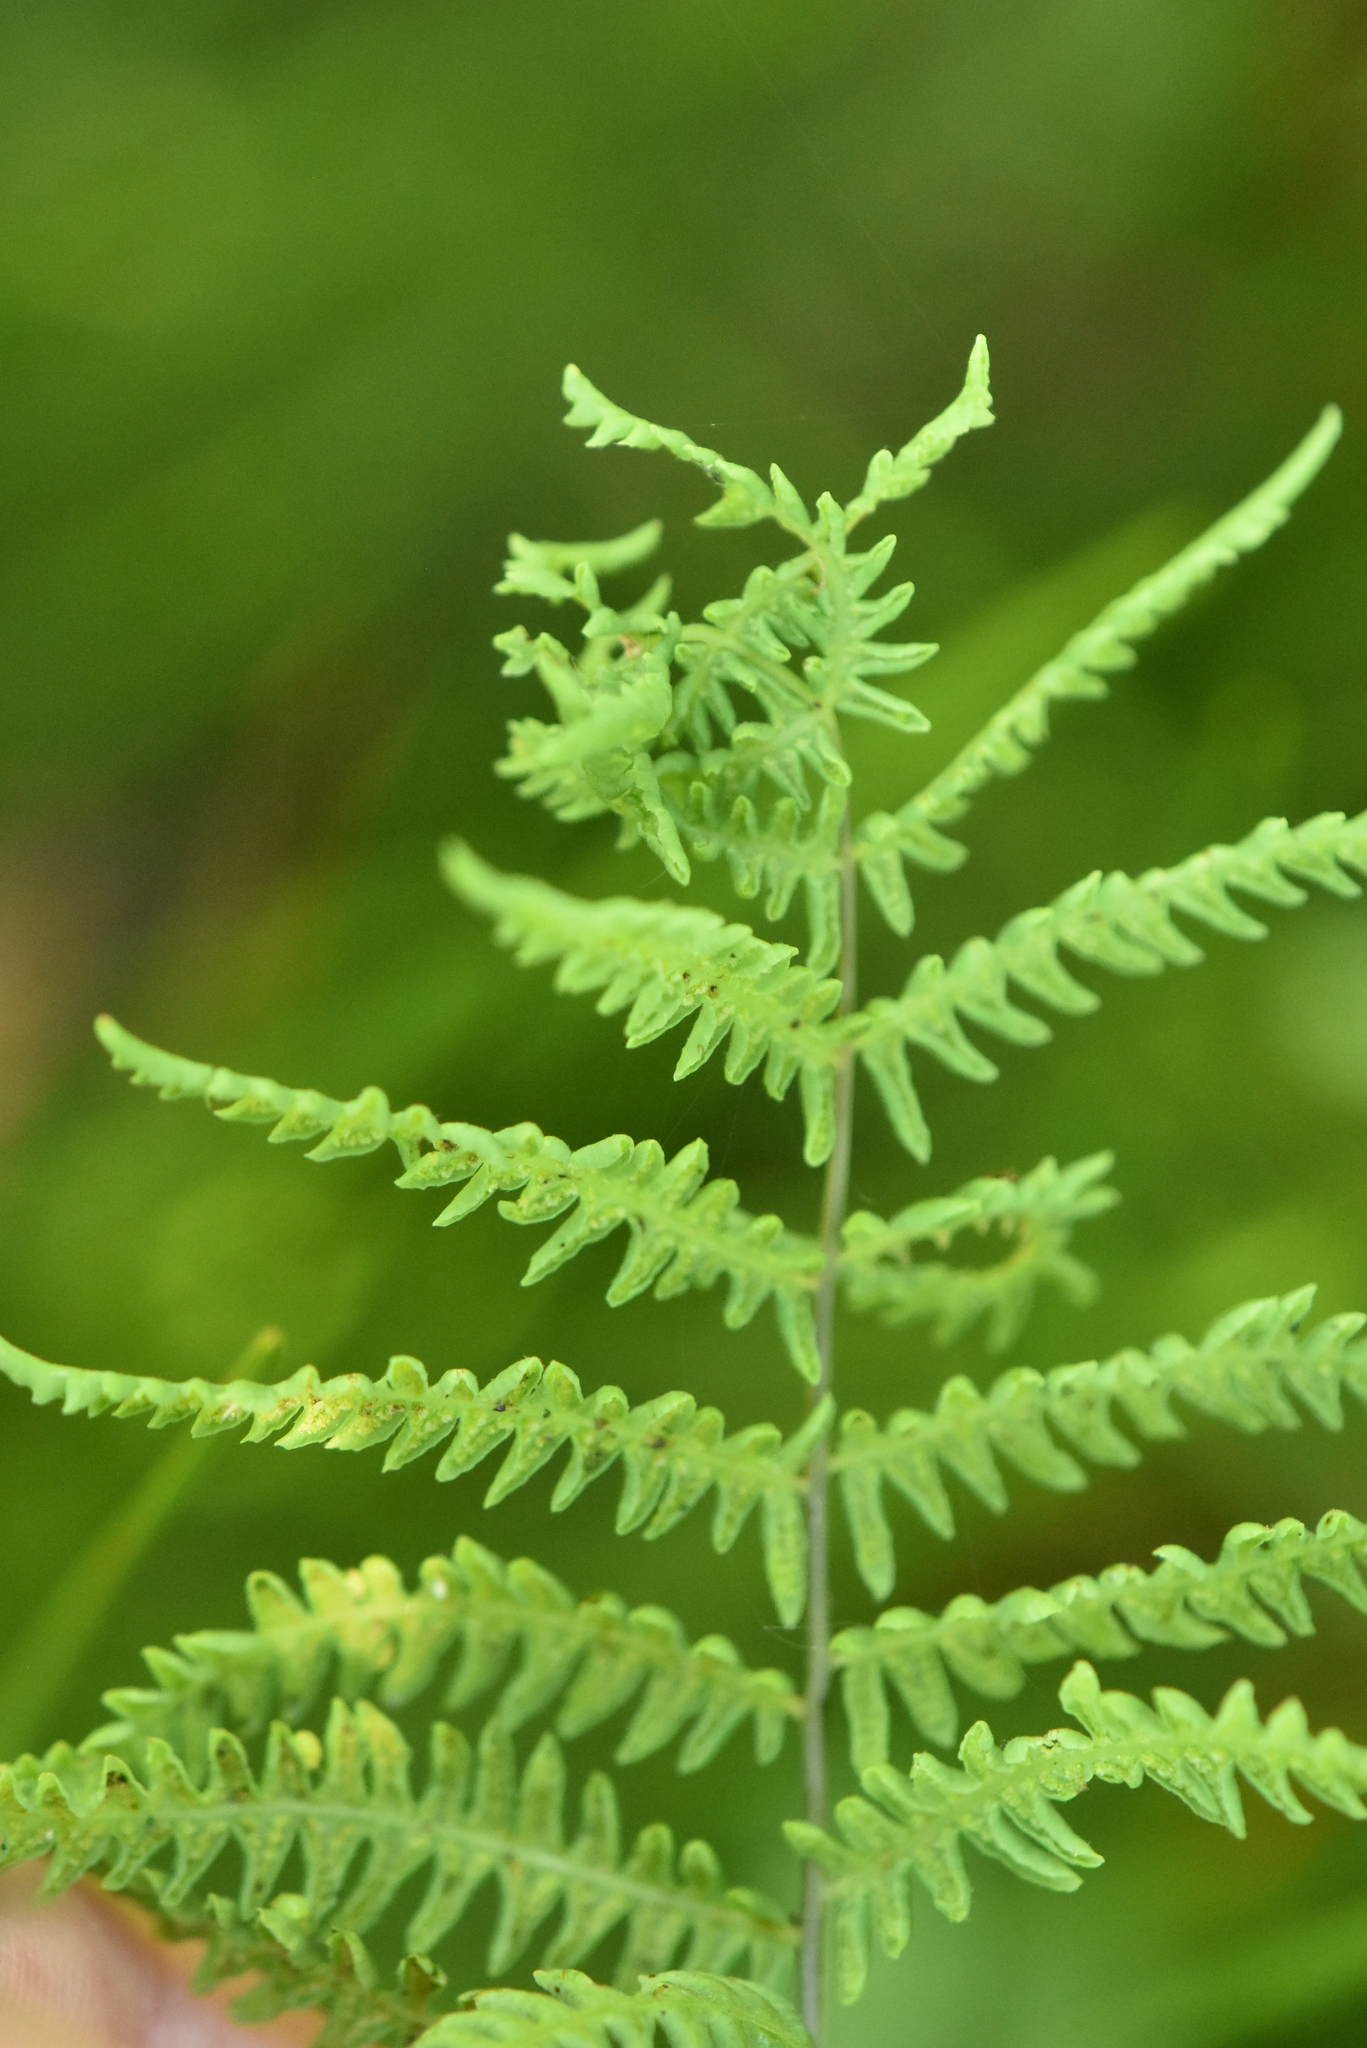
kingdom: Plantae
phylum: Tracheophyta
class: Polypodiopsida
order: Polypodiales
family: Thelypteridaceae
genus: Thelypteris
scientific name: Thelypteris palustris
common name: Marsh fern
